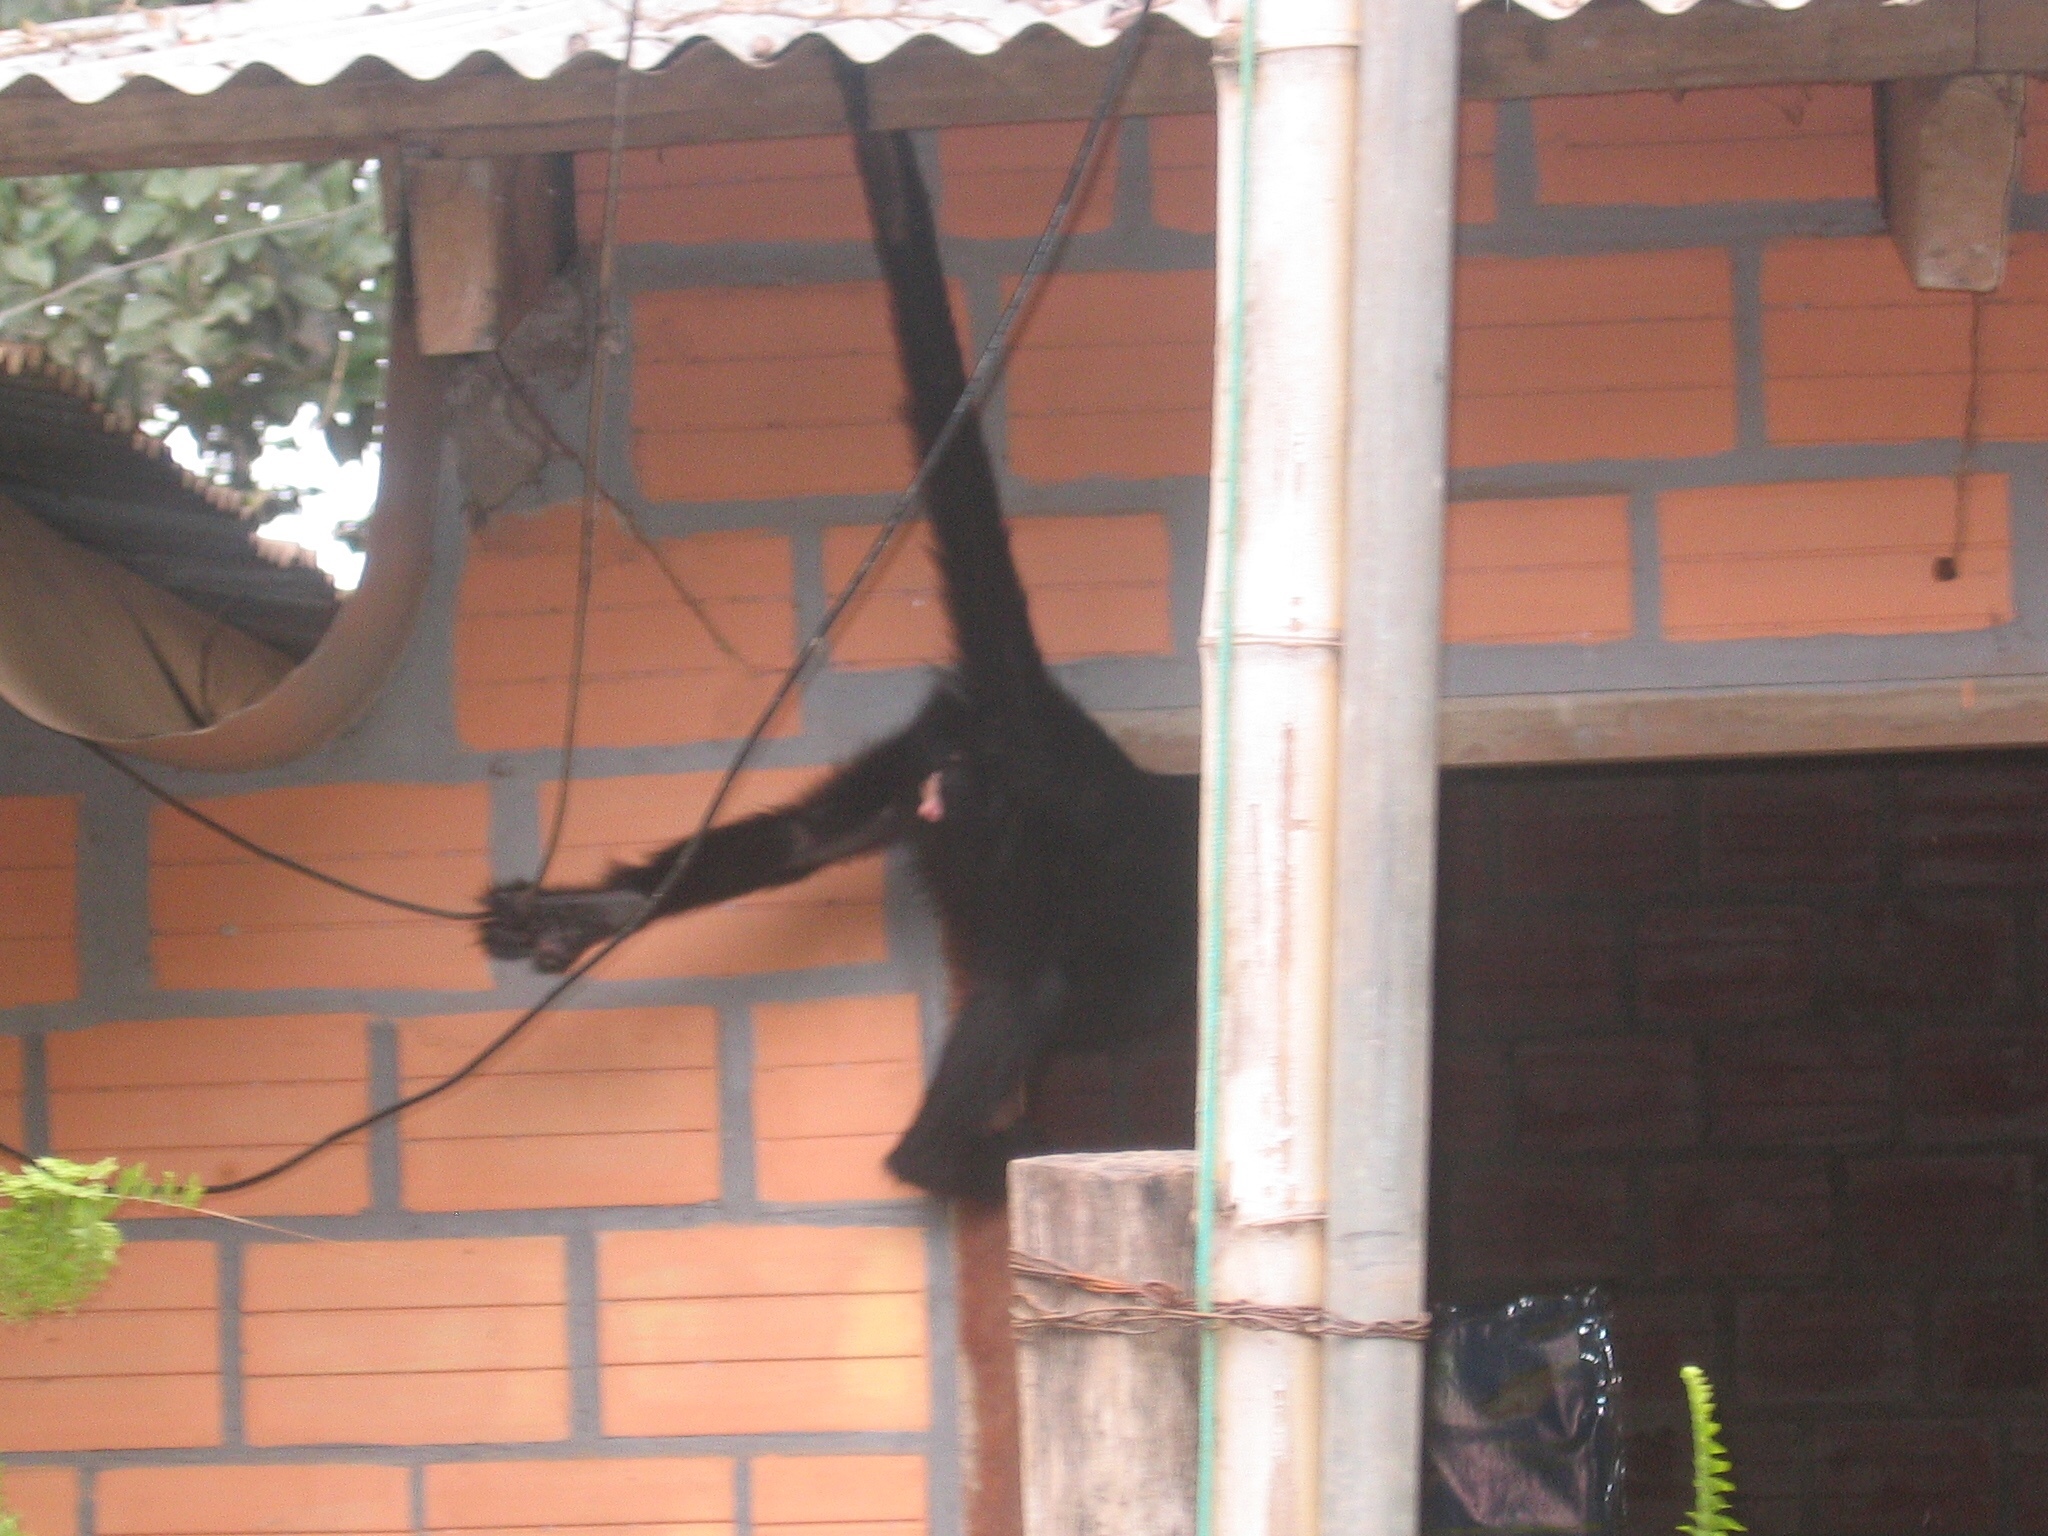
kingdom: Animalia
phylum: Chordata
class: Mammalia
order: Primates
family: Atelidae
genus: Ateles
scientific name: Ateles chamek
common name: Peruvian spider monkey
